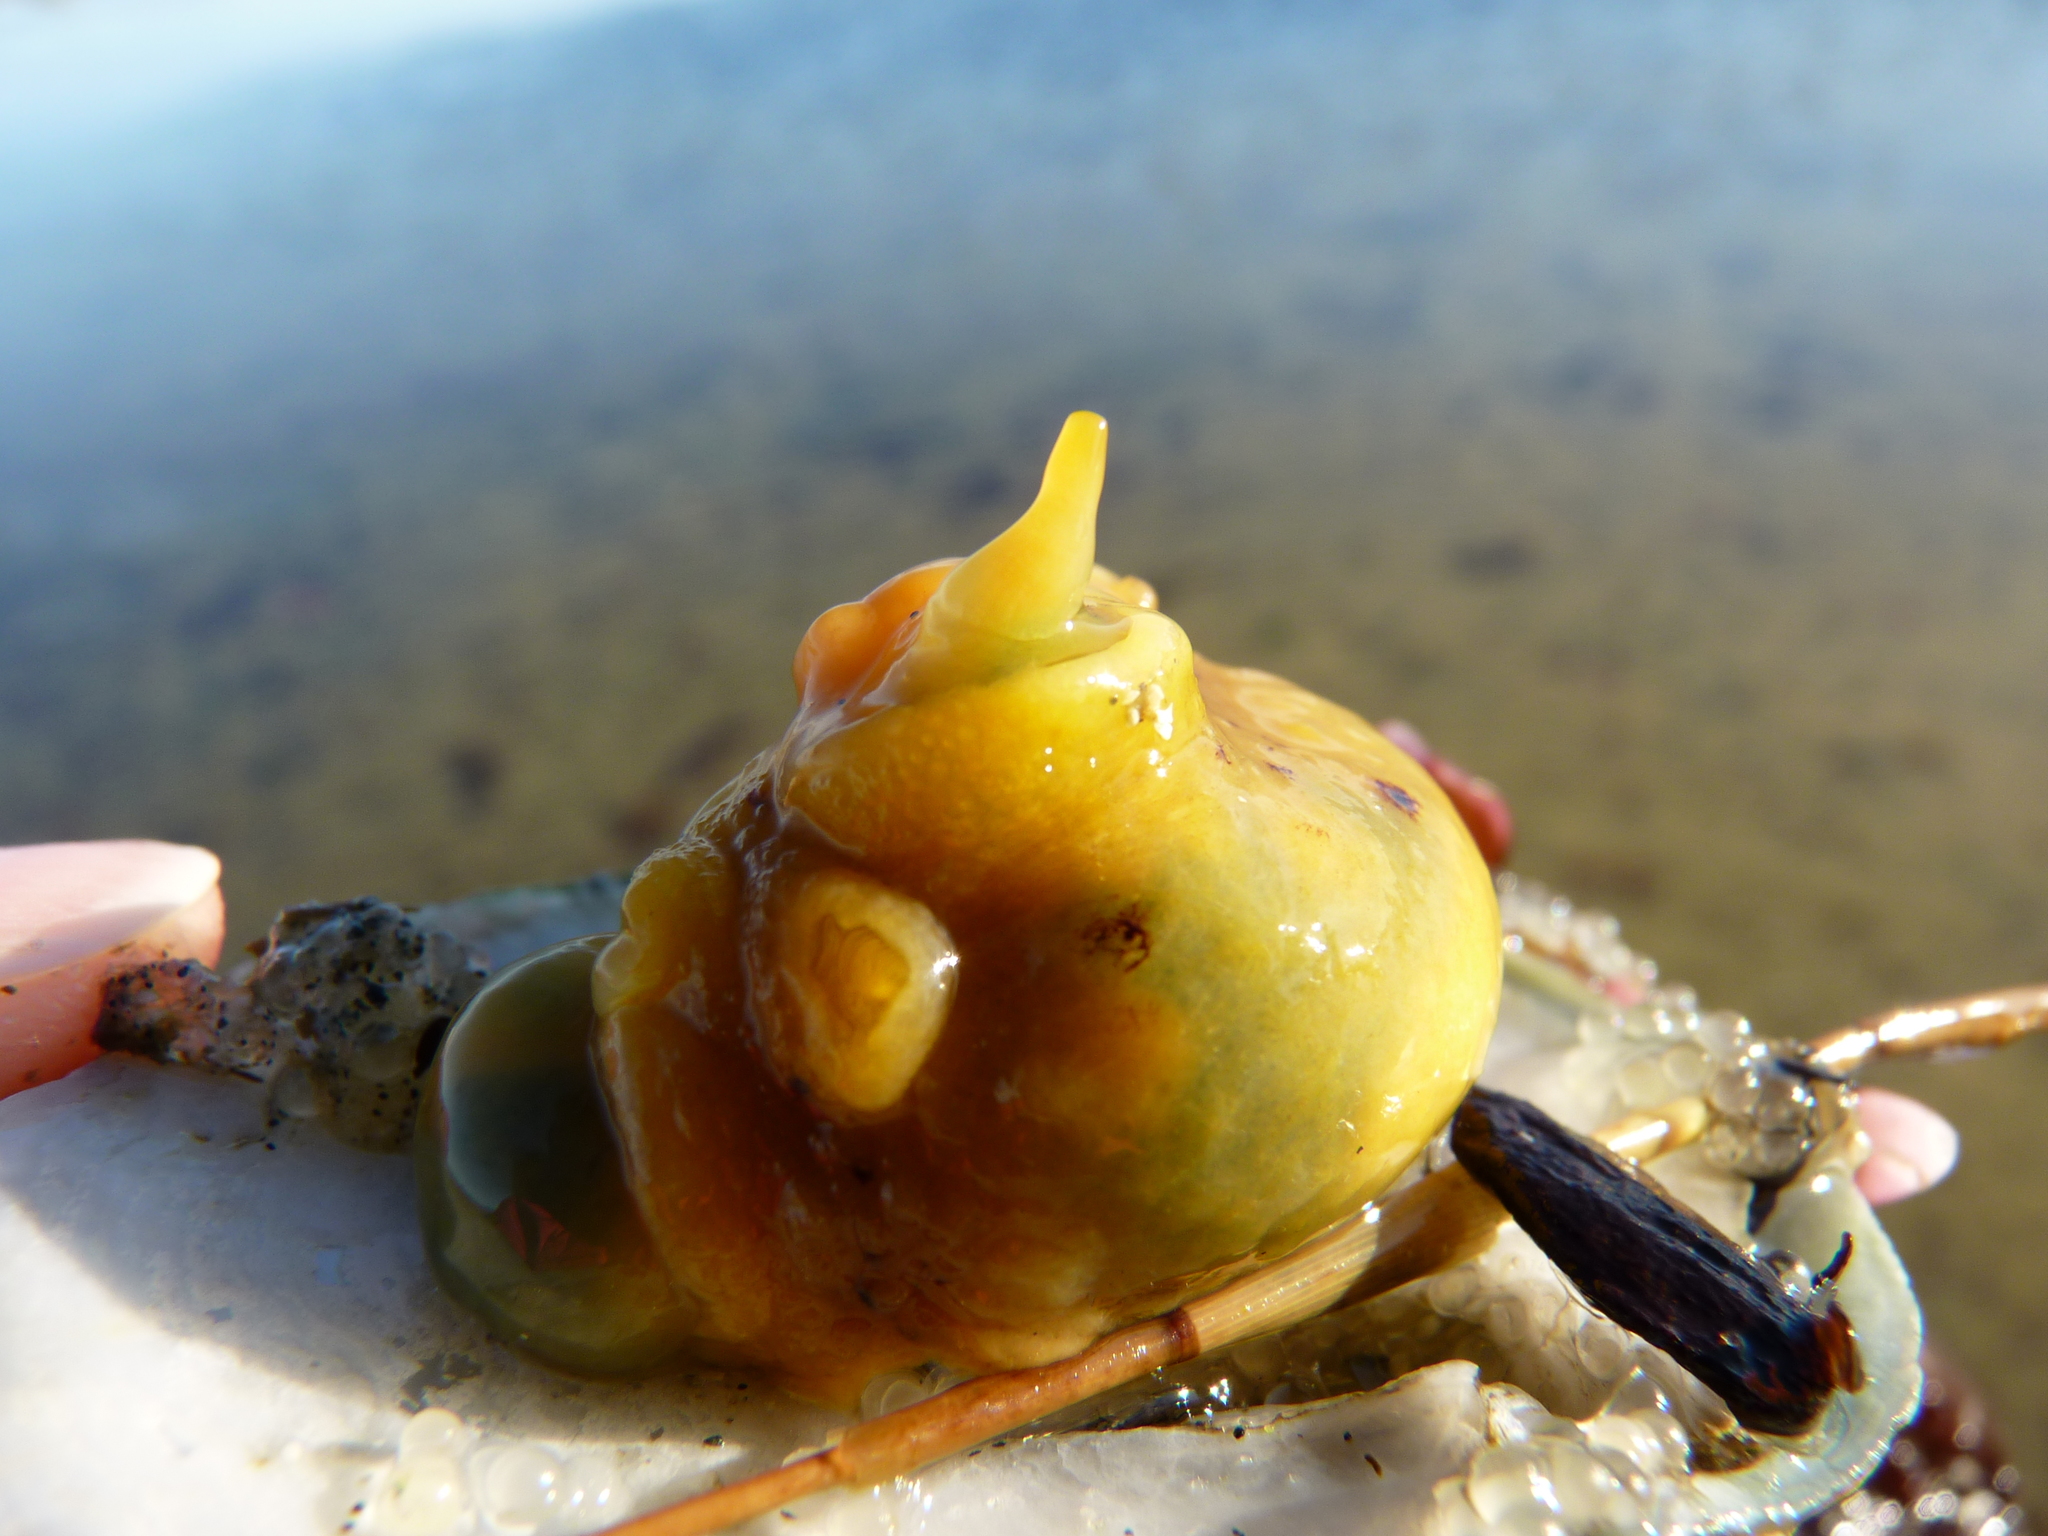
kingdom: Animalia
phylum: Mollusca
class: Gastropoda
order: Nudibranchia
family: Dorididae
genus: Doris
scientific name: Doris montereyensis
